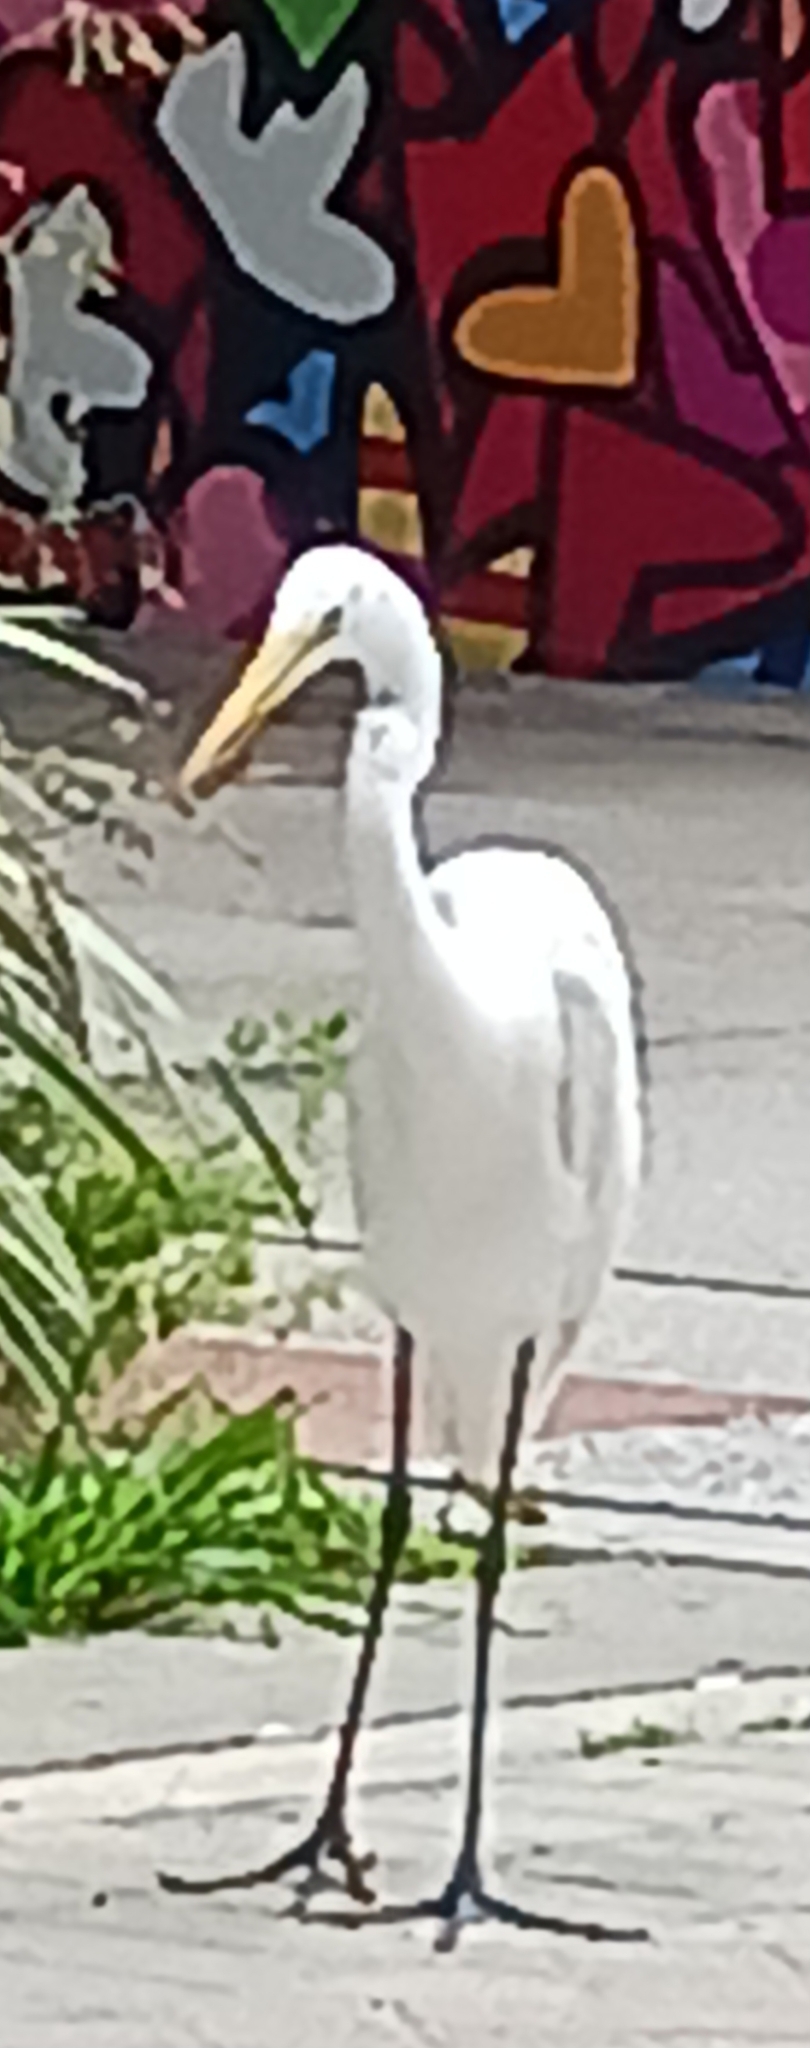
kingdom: Animalia
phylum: Chordata
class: Aves
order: Pelecaniformes
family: Ardeidae
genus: Ardea
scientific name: Ardea alba
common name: Great egret
